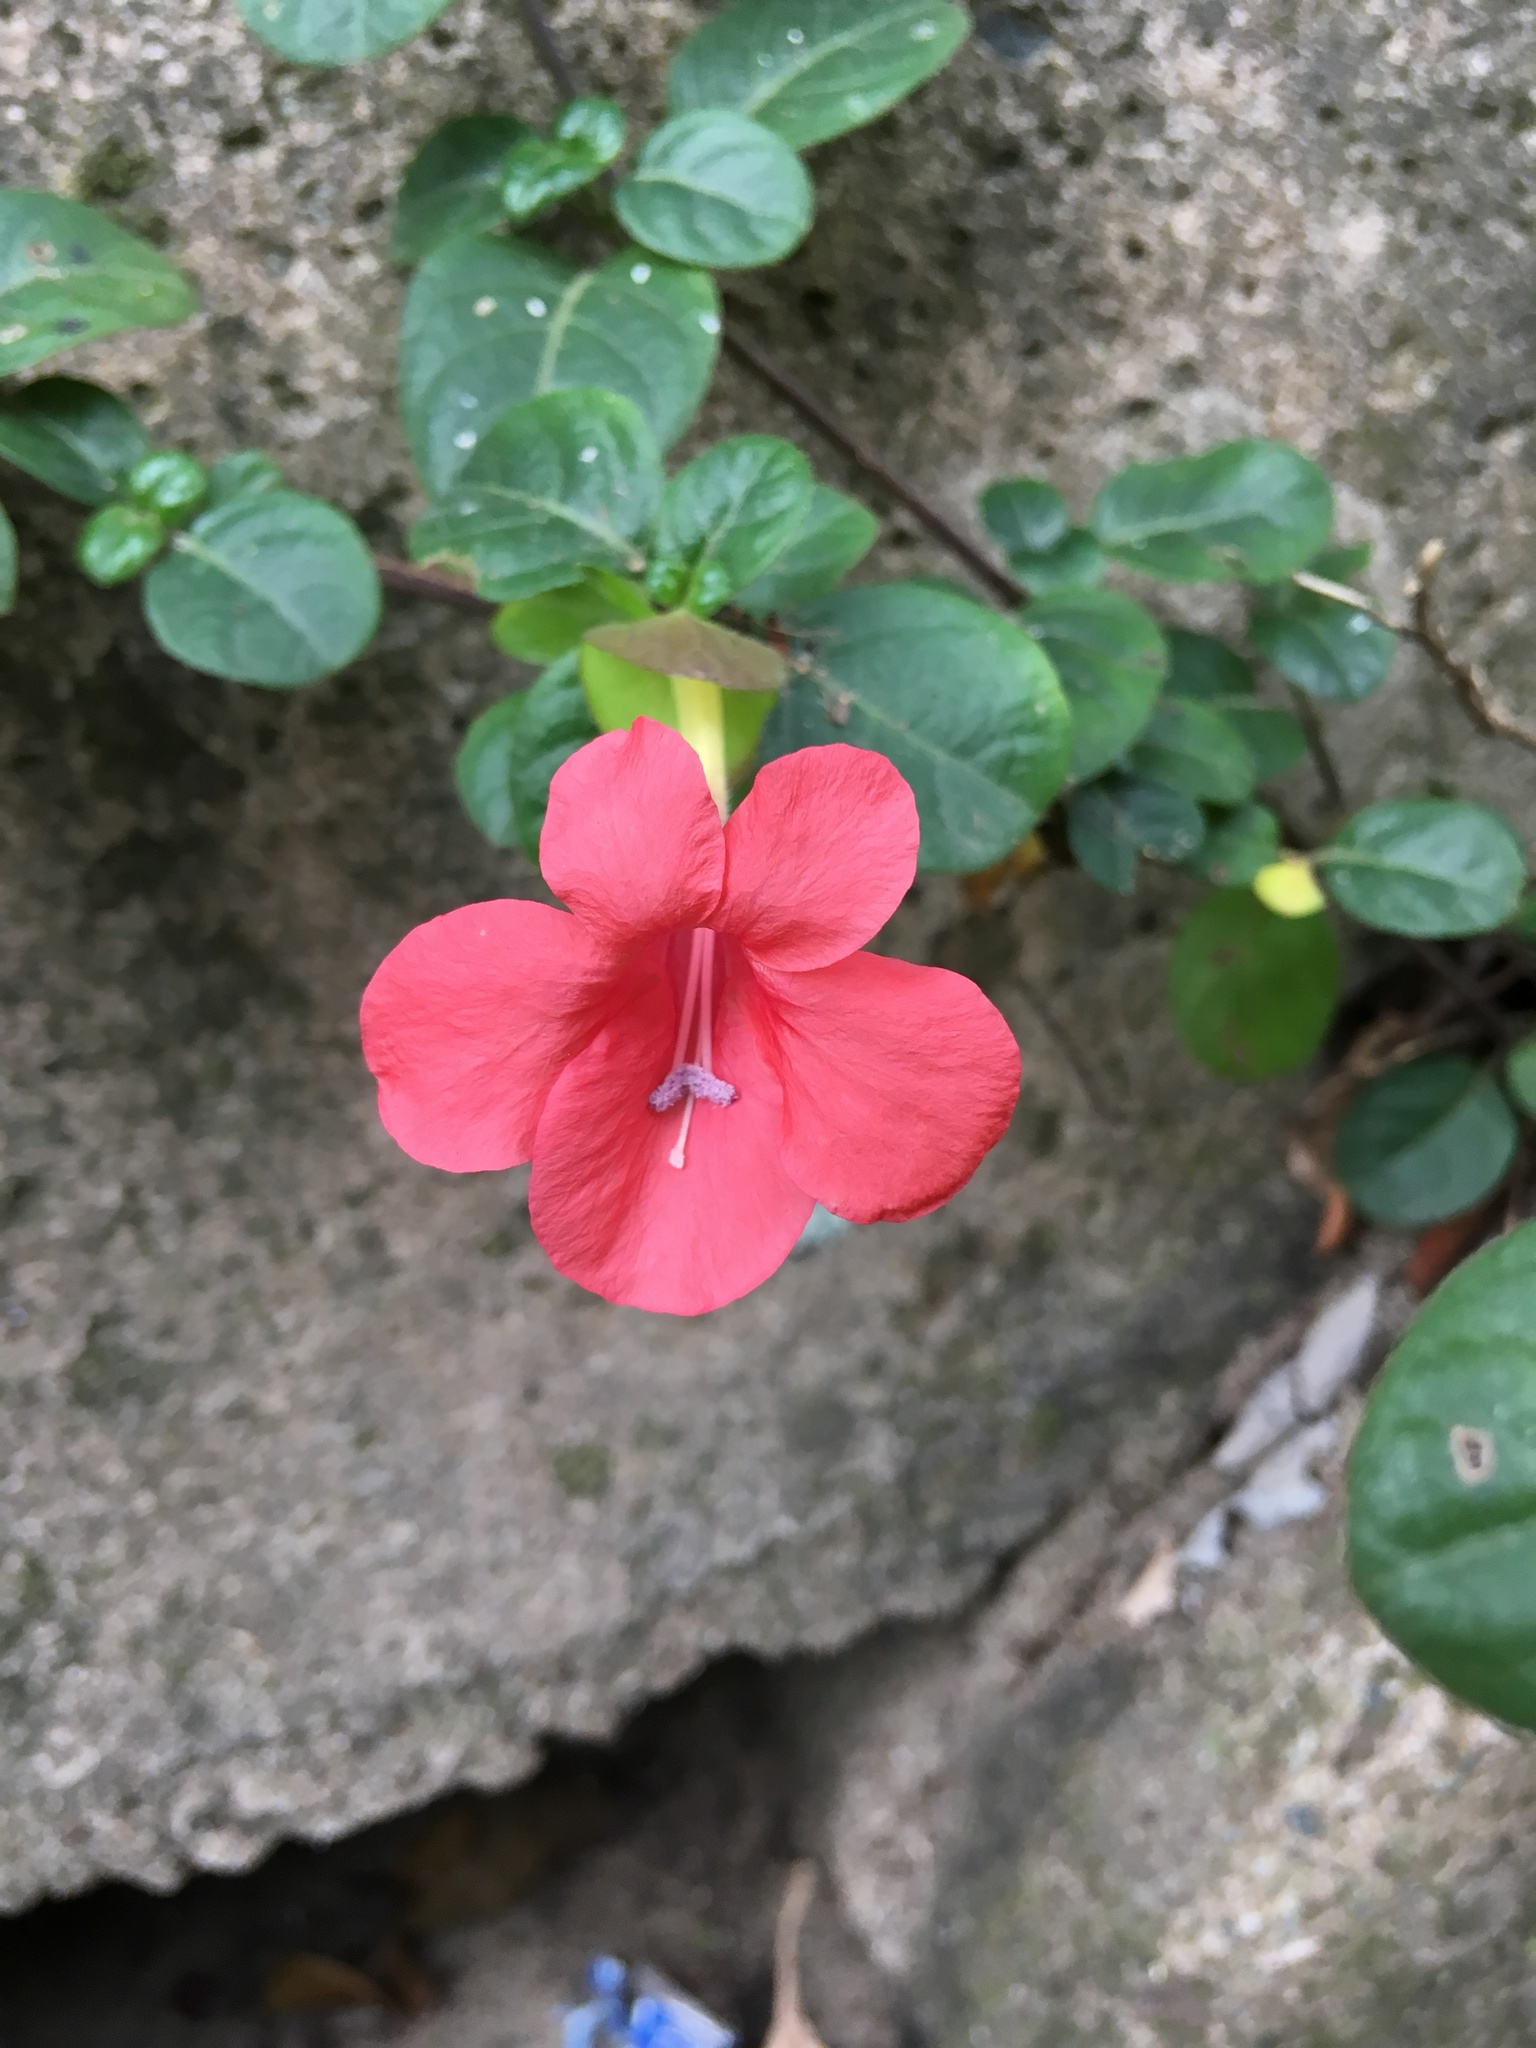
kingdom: Plantae
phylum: Tracheophyta
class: Magnoliopsida
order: Lamiales
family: Acanthaceae
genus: Barleria
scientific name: Barleria repens
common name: Pink-ruellia
